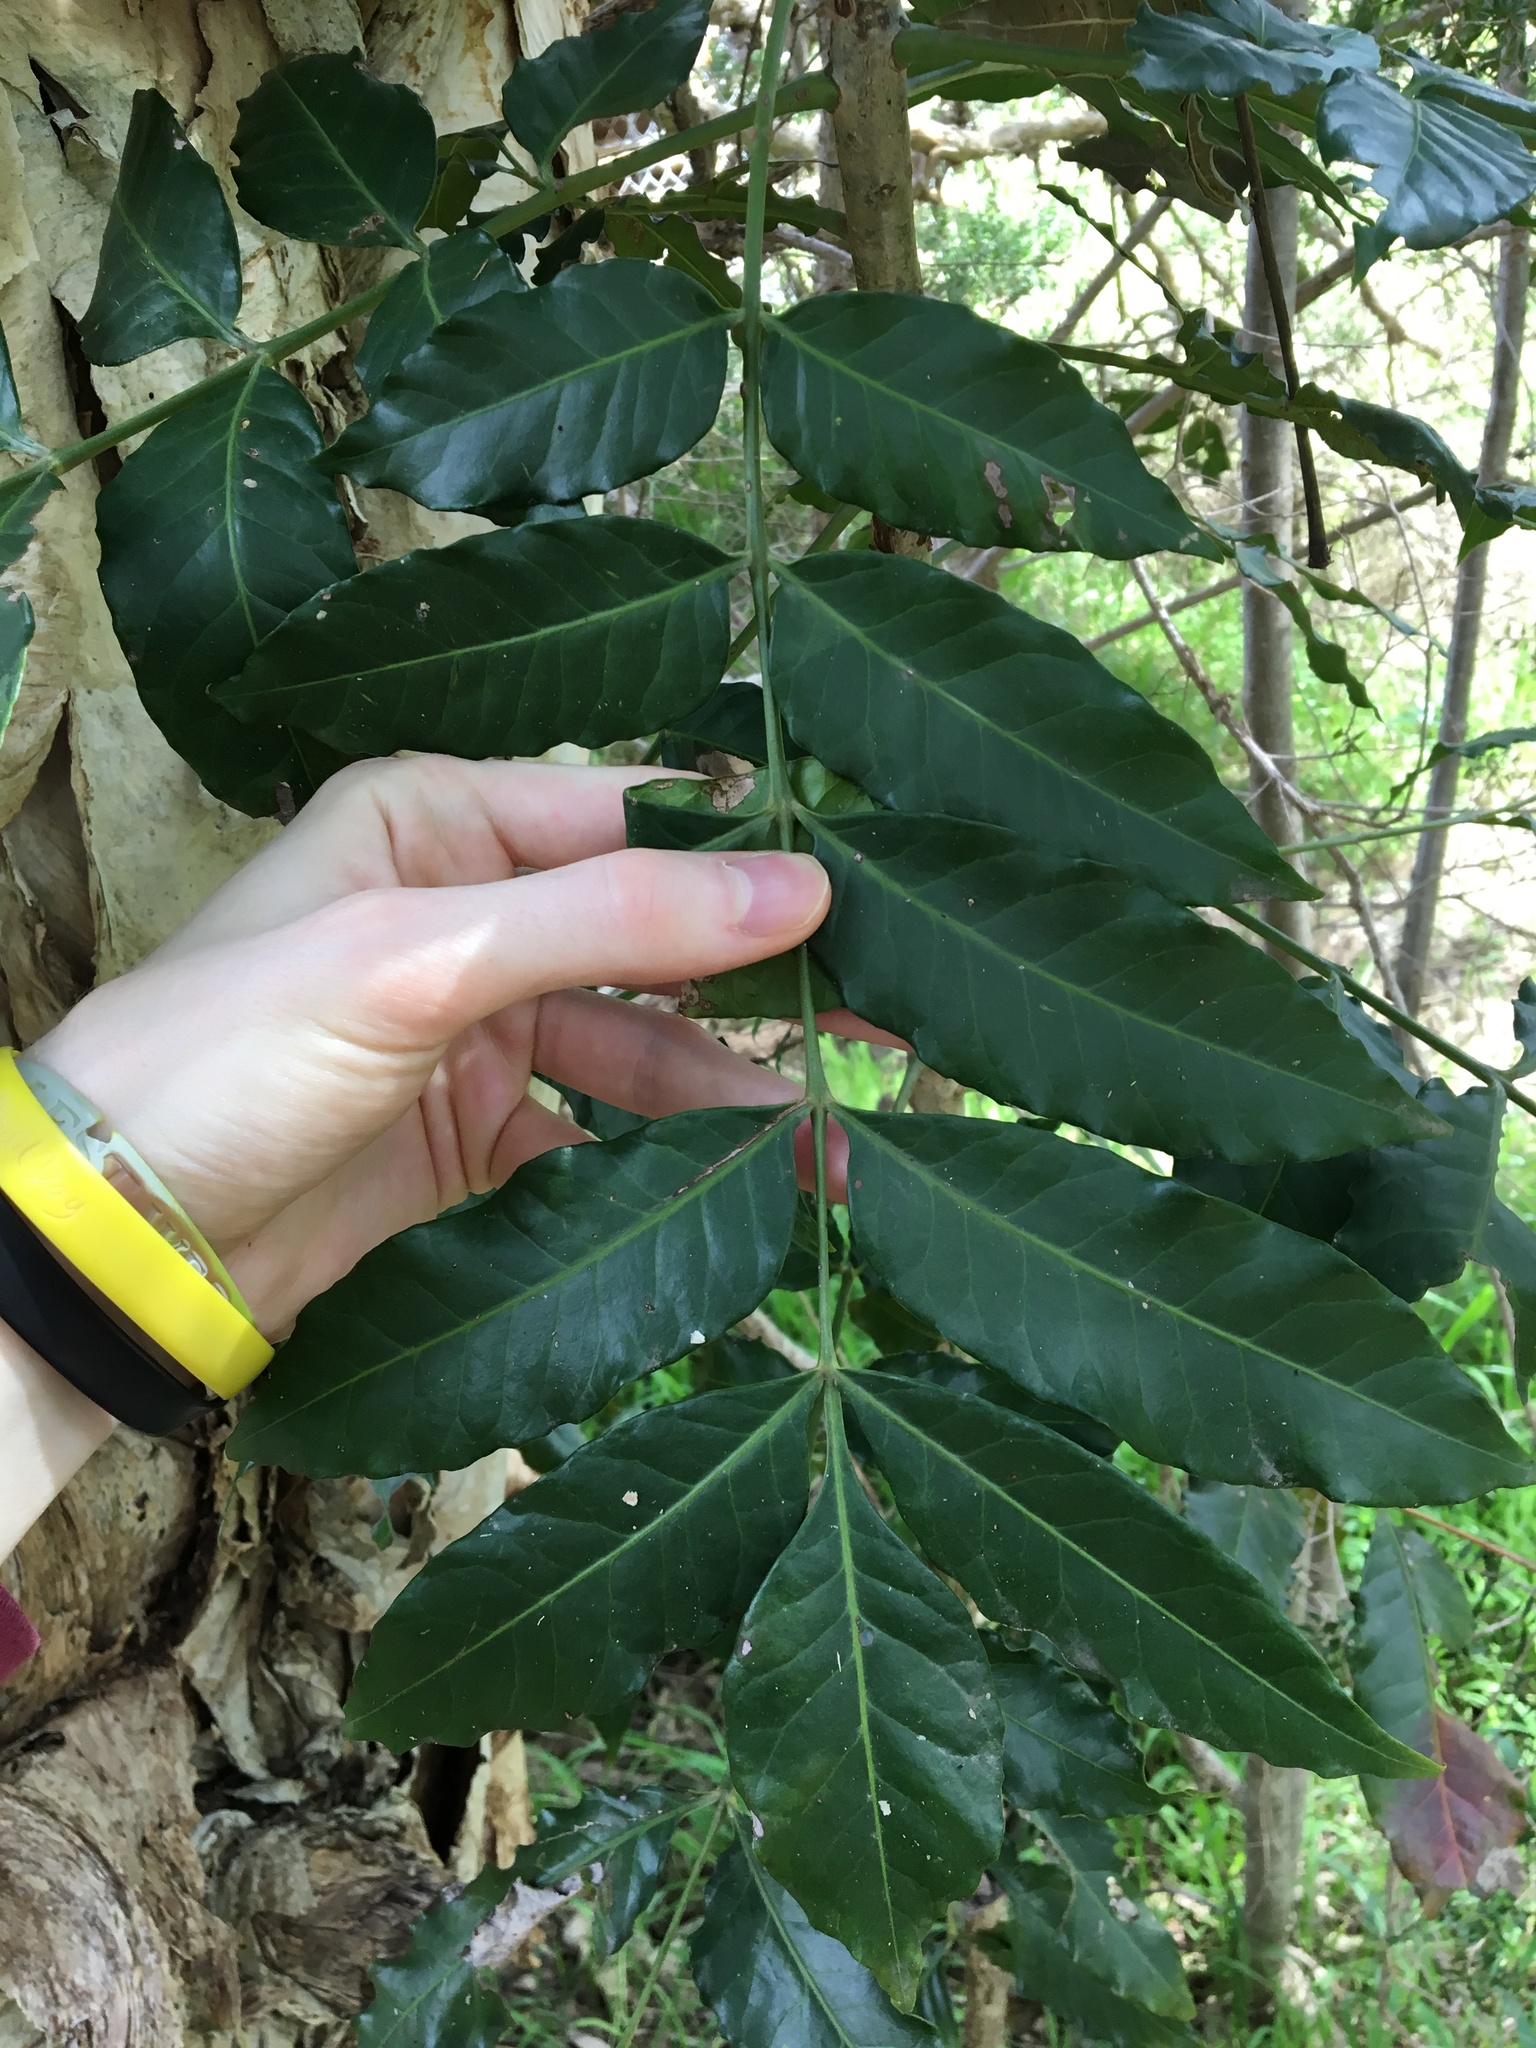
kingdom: Plantae
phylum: Tracheophyta
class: Magnoliopsida
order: Sapindales
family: Anacardiaceae
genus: Harpephyllum
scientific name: Harpephyllum caffrum
